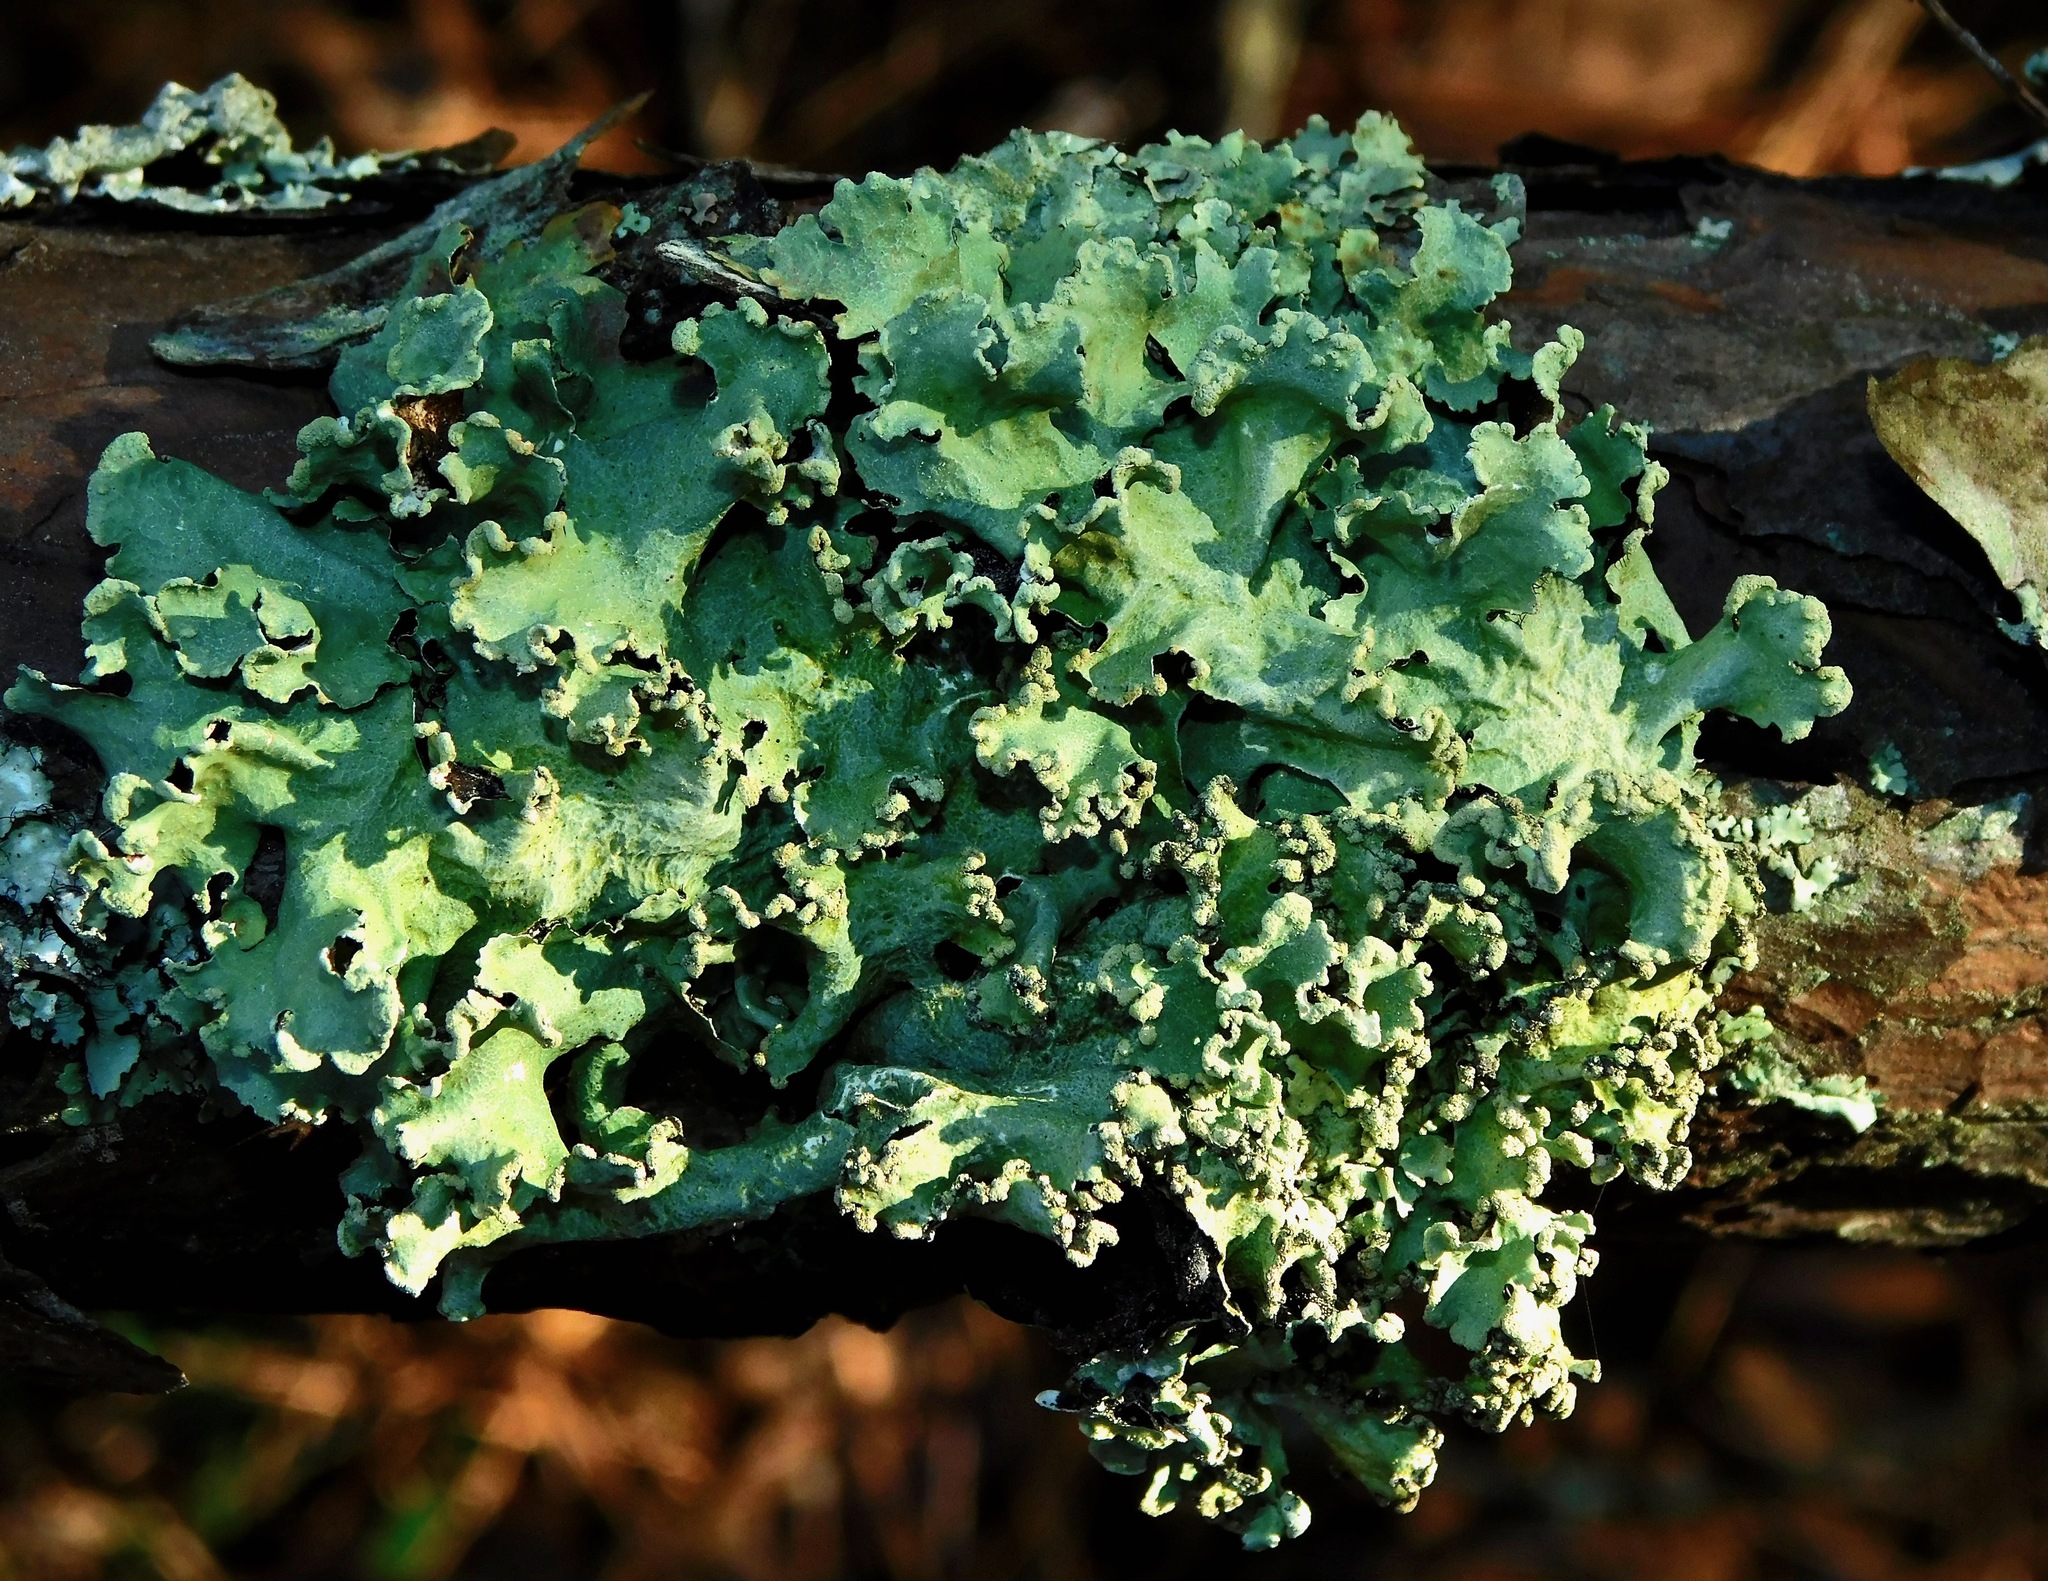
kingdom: Fungi
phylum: Ascomycota
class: Lecanoromycetes
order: Lecanorales
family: Parmeliaceae
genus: Parmotrema
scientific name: Parmotrema simulans
